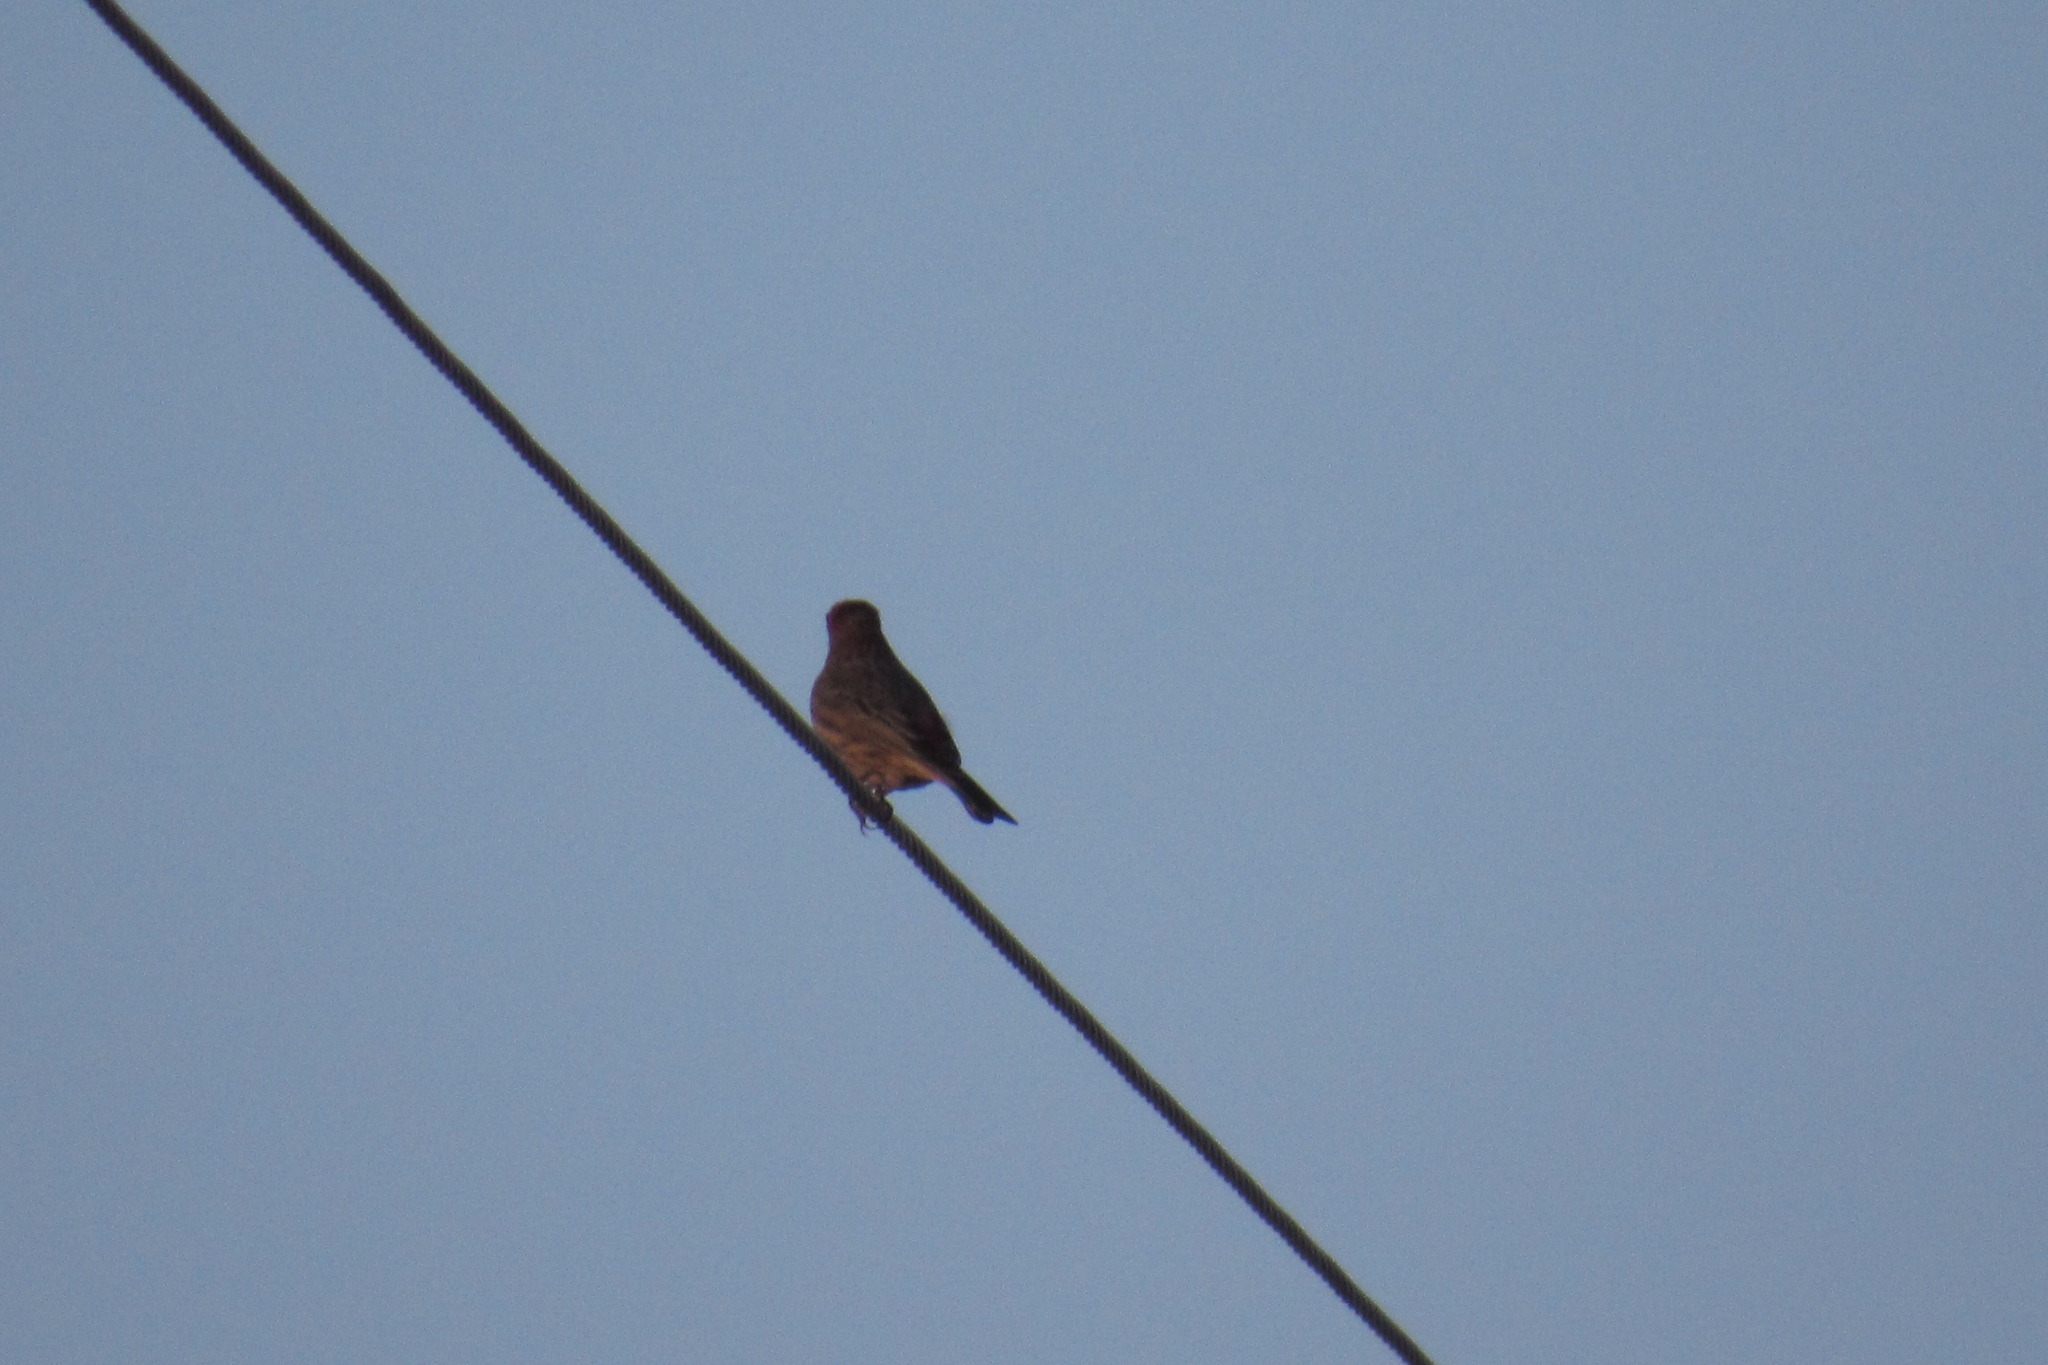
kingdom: Animalia
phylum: Chordata
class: Aves
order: Passeriformes
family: Fringillidae
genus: Haemorhous
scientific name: Haemorhous mexicanus
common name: House finch
